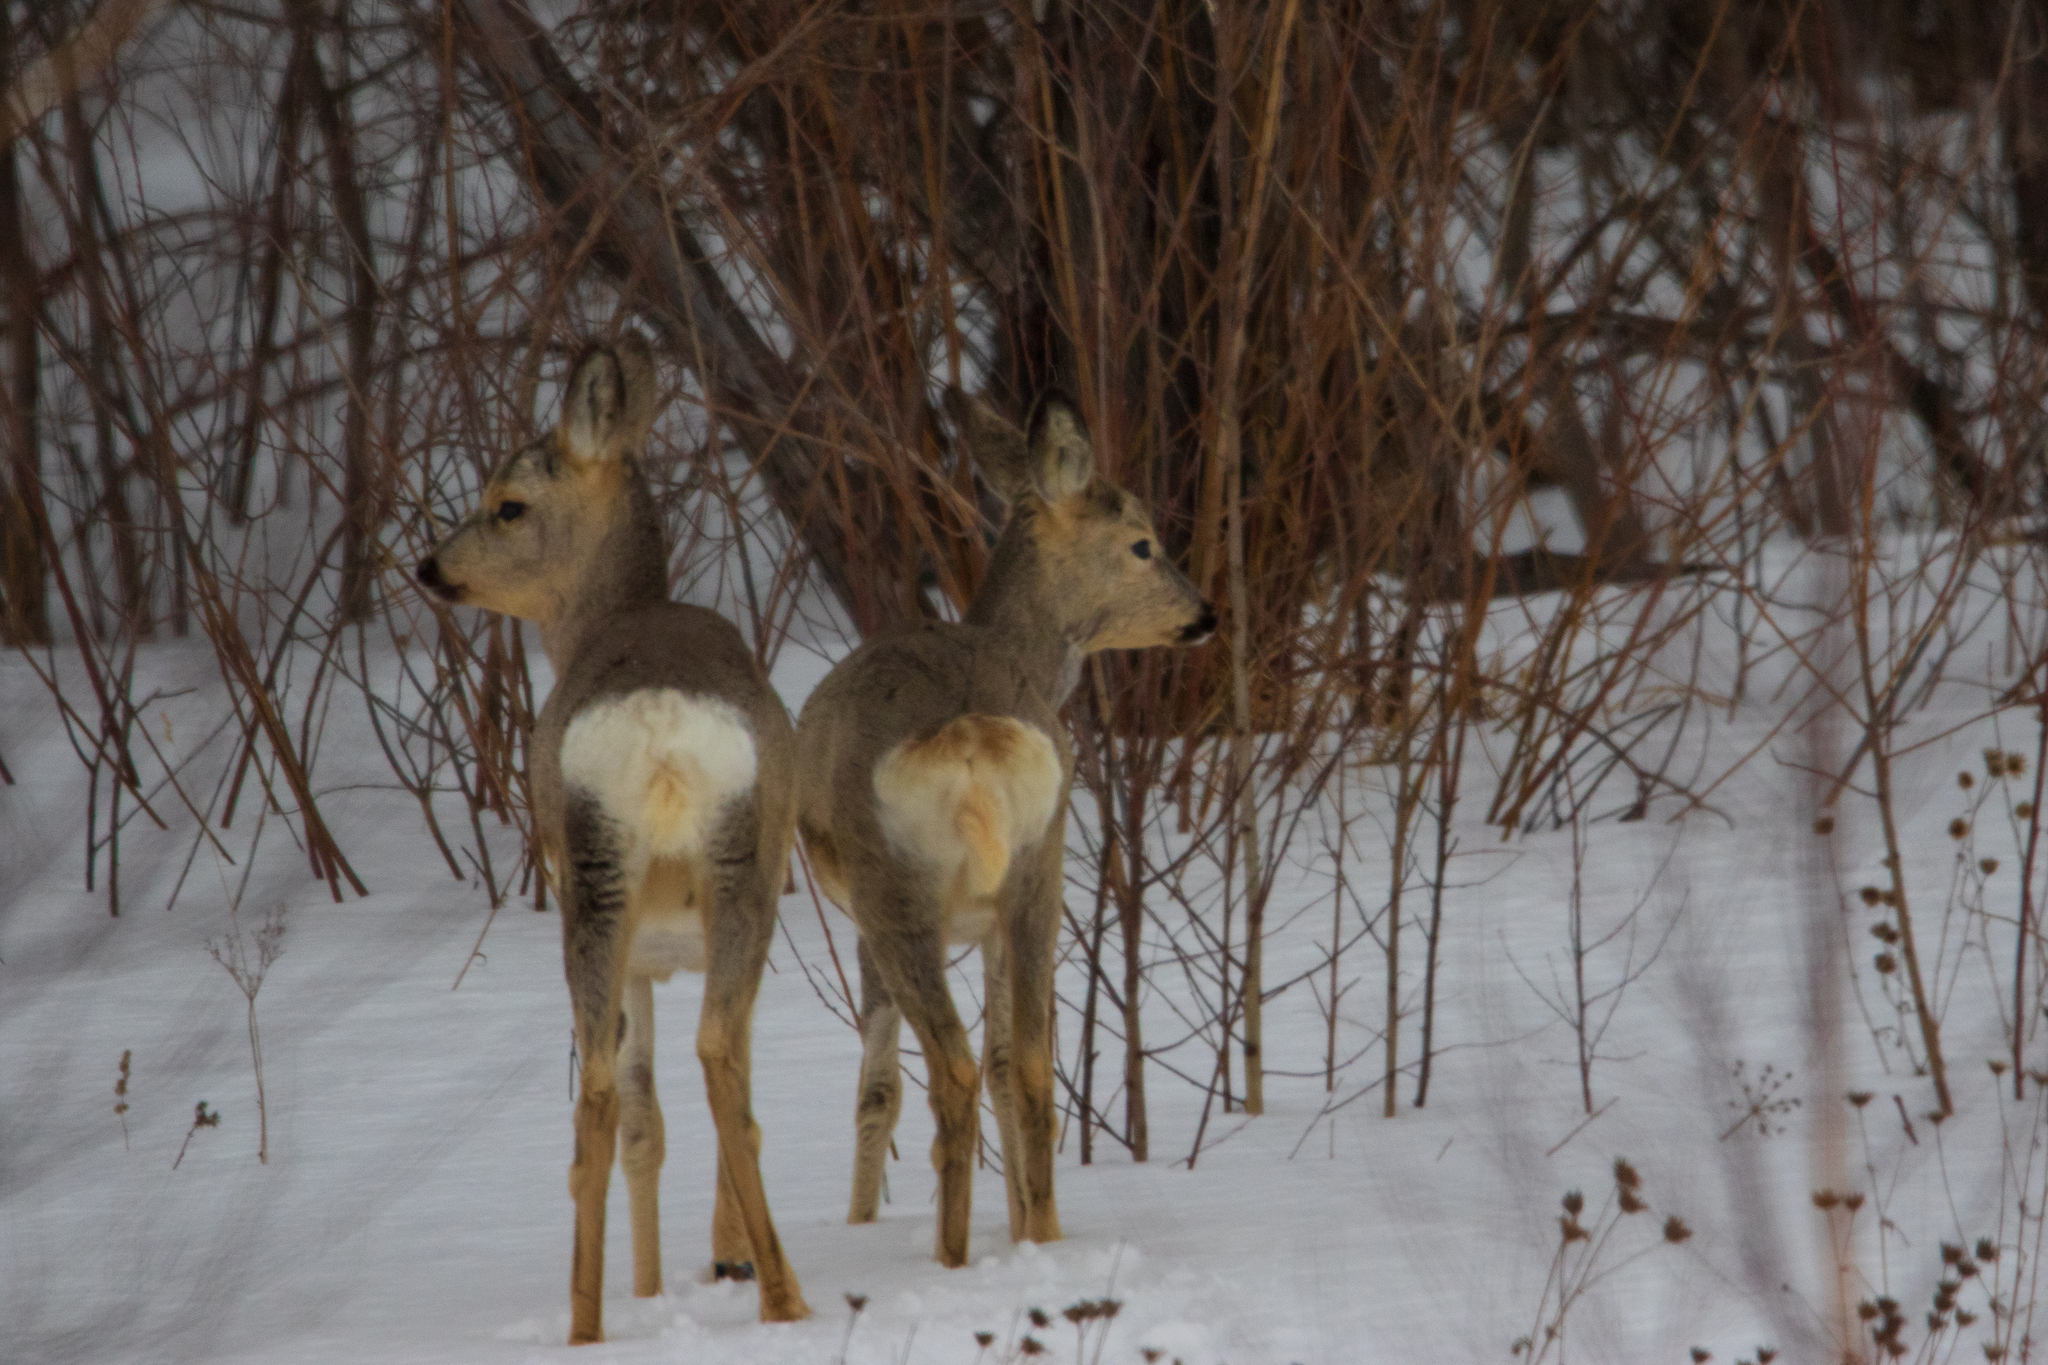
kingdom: Animalia
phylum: Chordata
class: Mammalia
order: Artiodactyla
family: Cervidae
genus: Capreolus
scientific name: Capreolus pygargus
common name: Siberian roe
